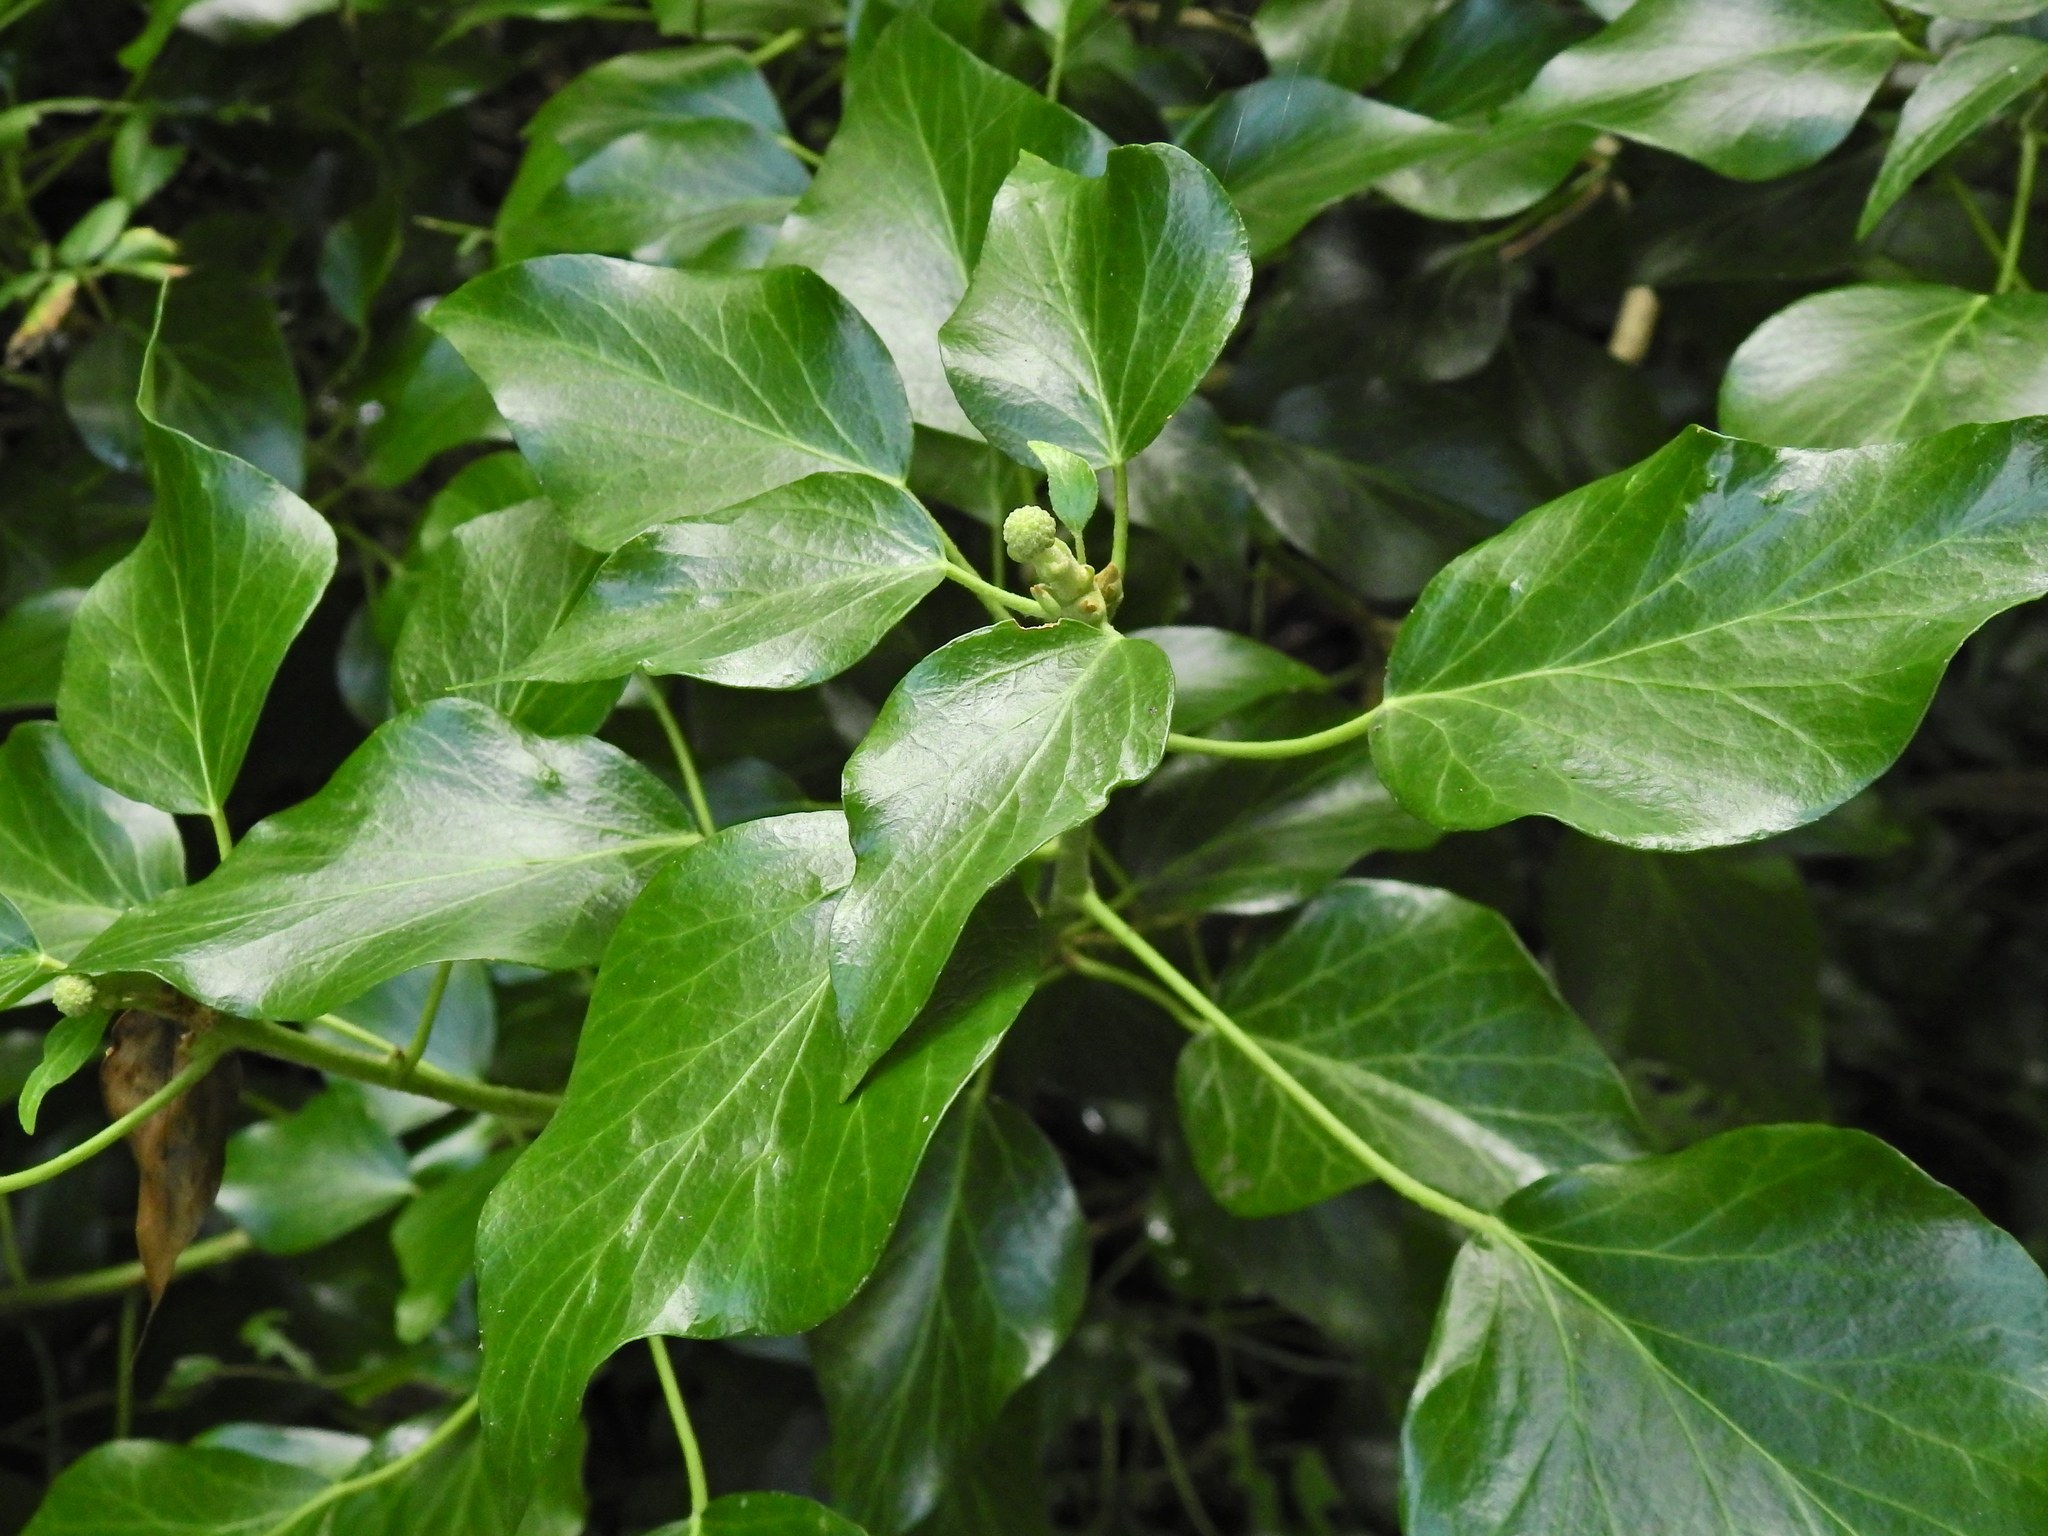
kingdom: Plantae
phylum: Tracheophyta
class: Magnoliopsida
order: Apiales
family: Araliaceae
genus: Hedera
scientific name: Hedera helix
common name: Ivy
